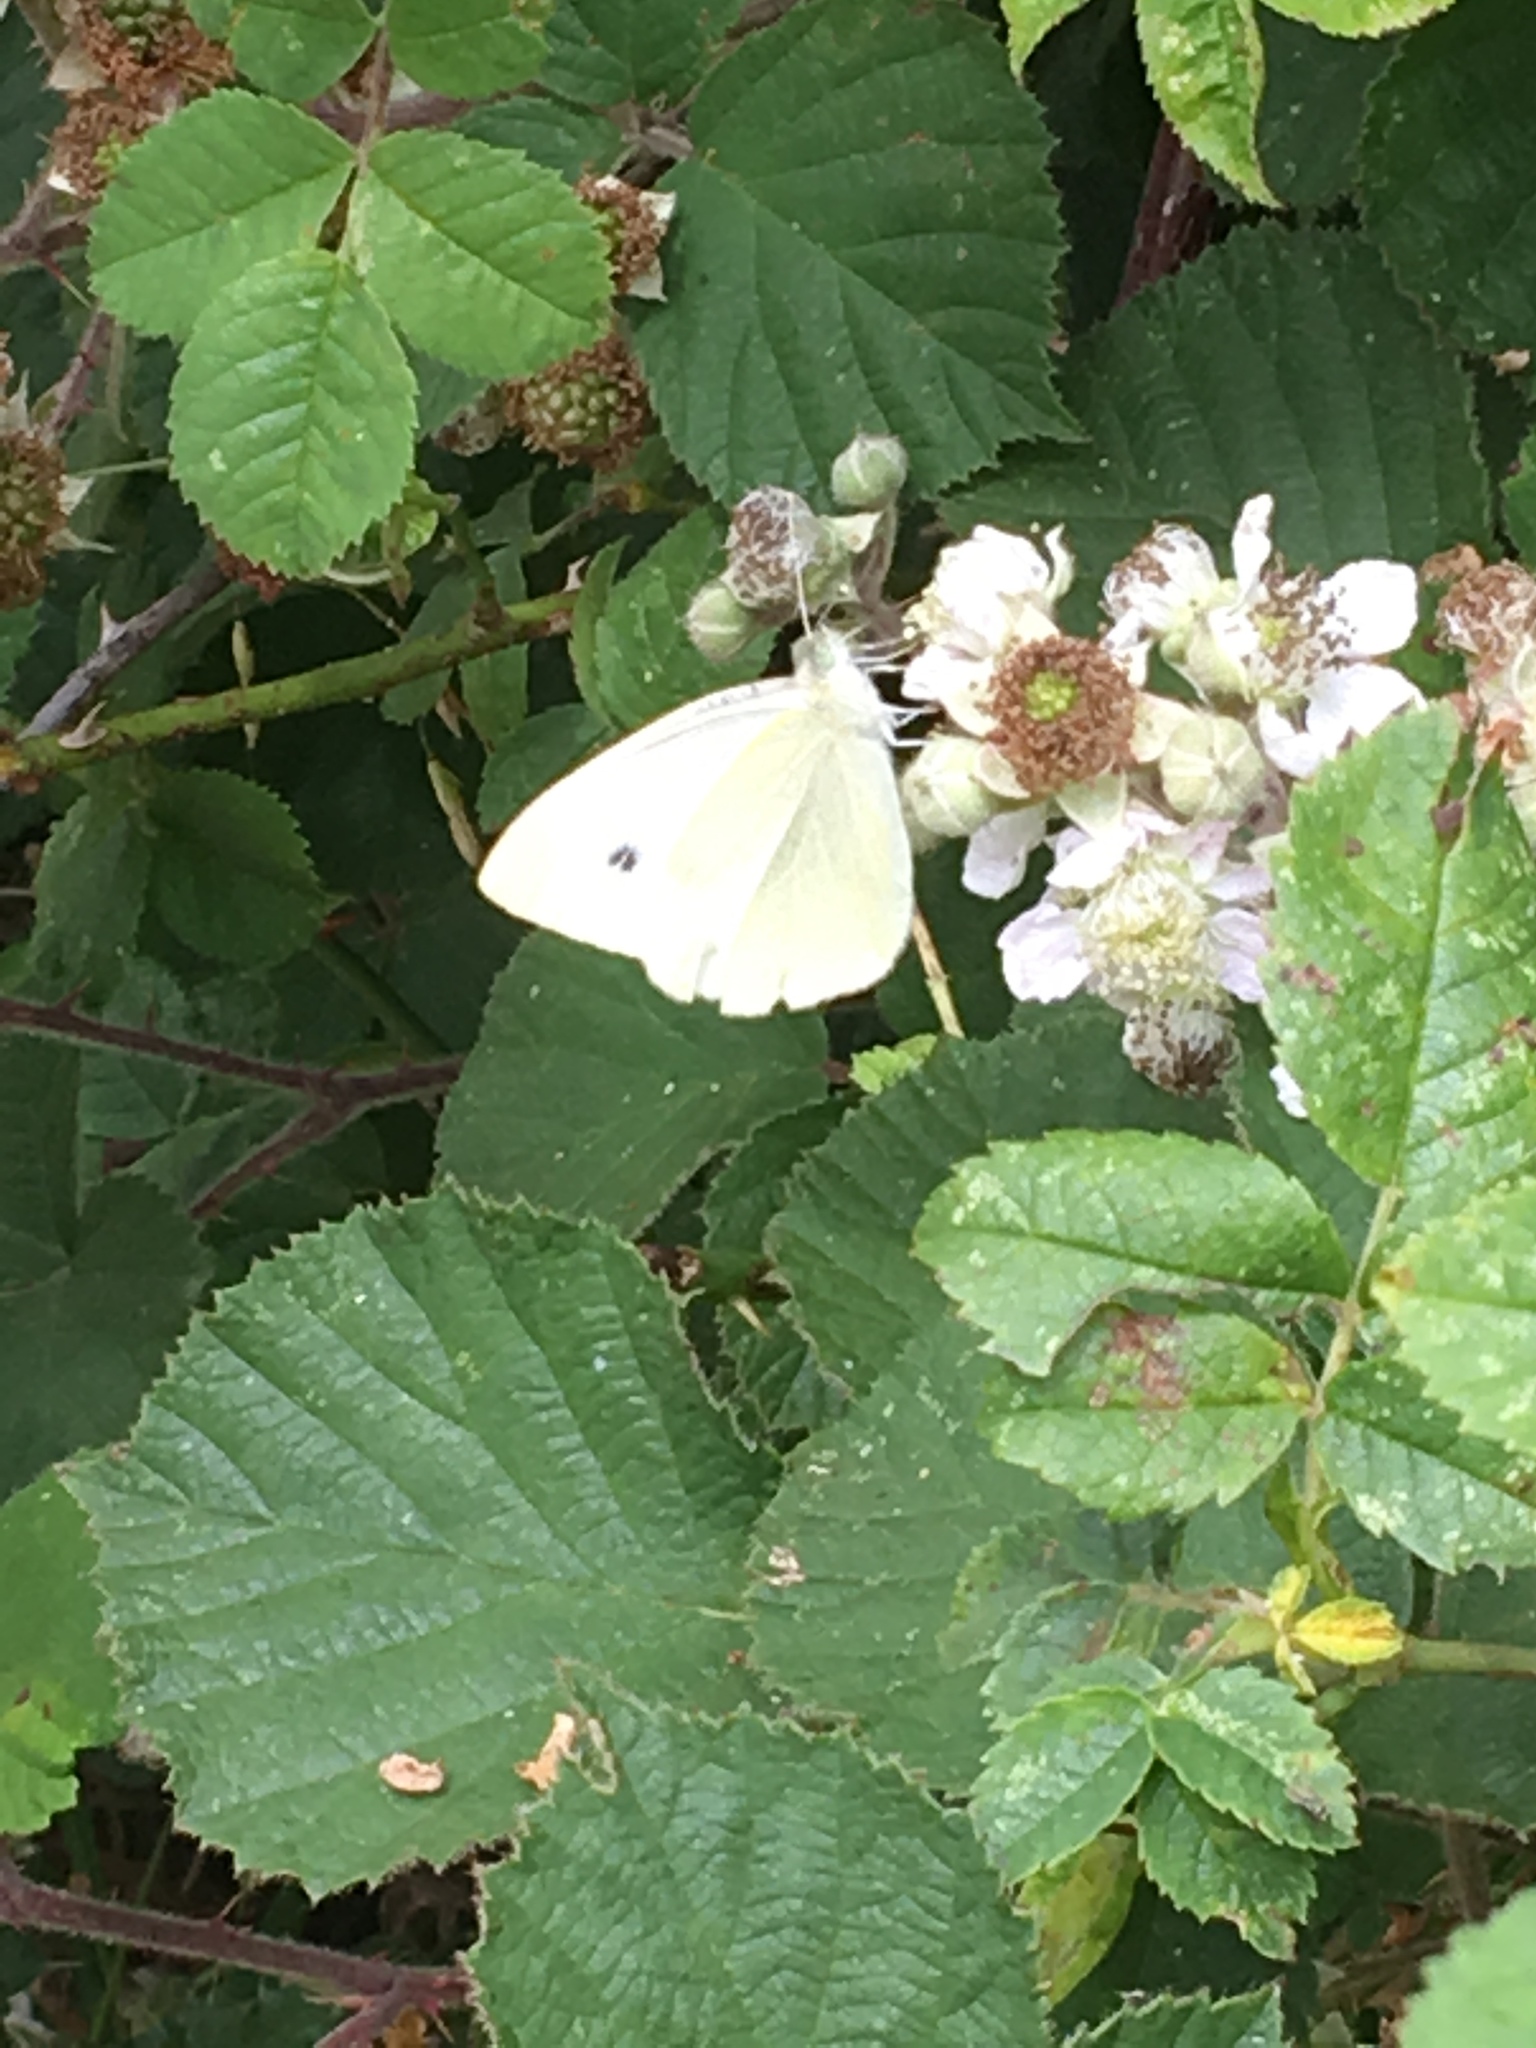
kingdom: Animalia
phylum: Arthropoda
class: Insecta
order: Lepidoptera
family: Pieridae
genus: Pieris
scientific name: Pieris rapae
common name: Small white
